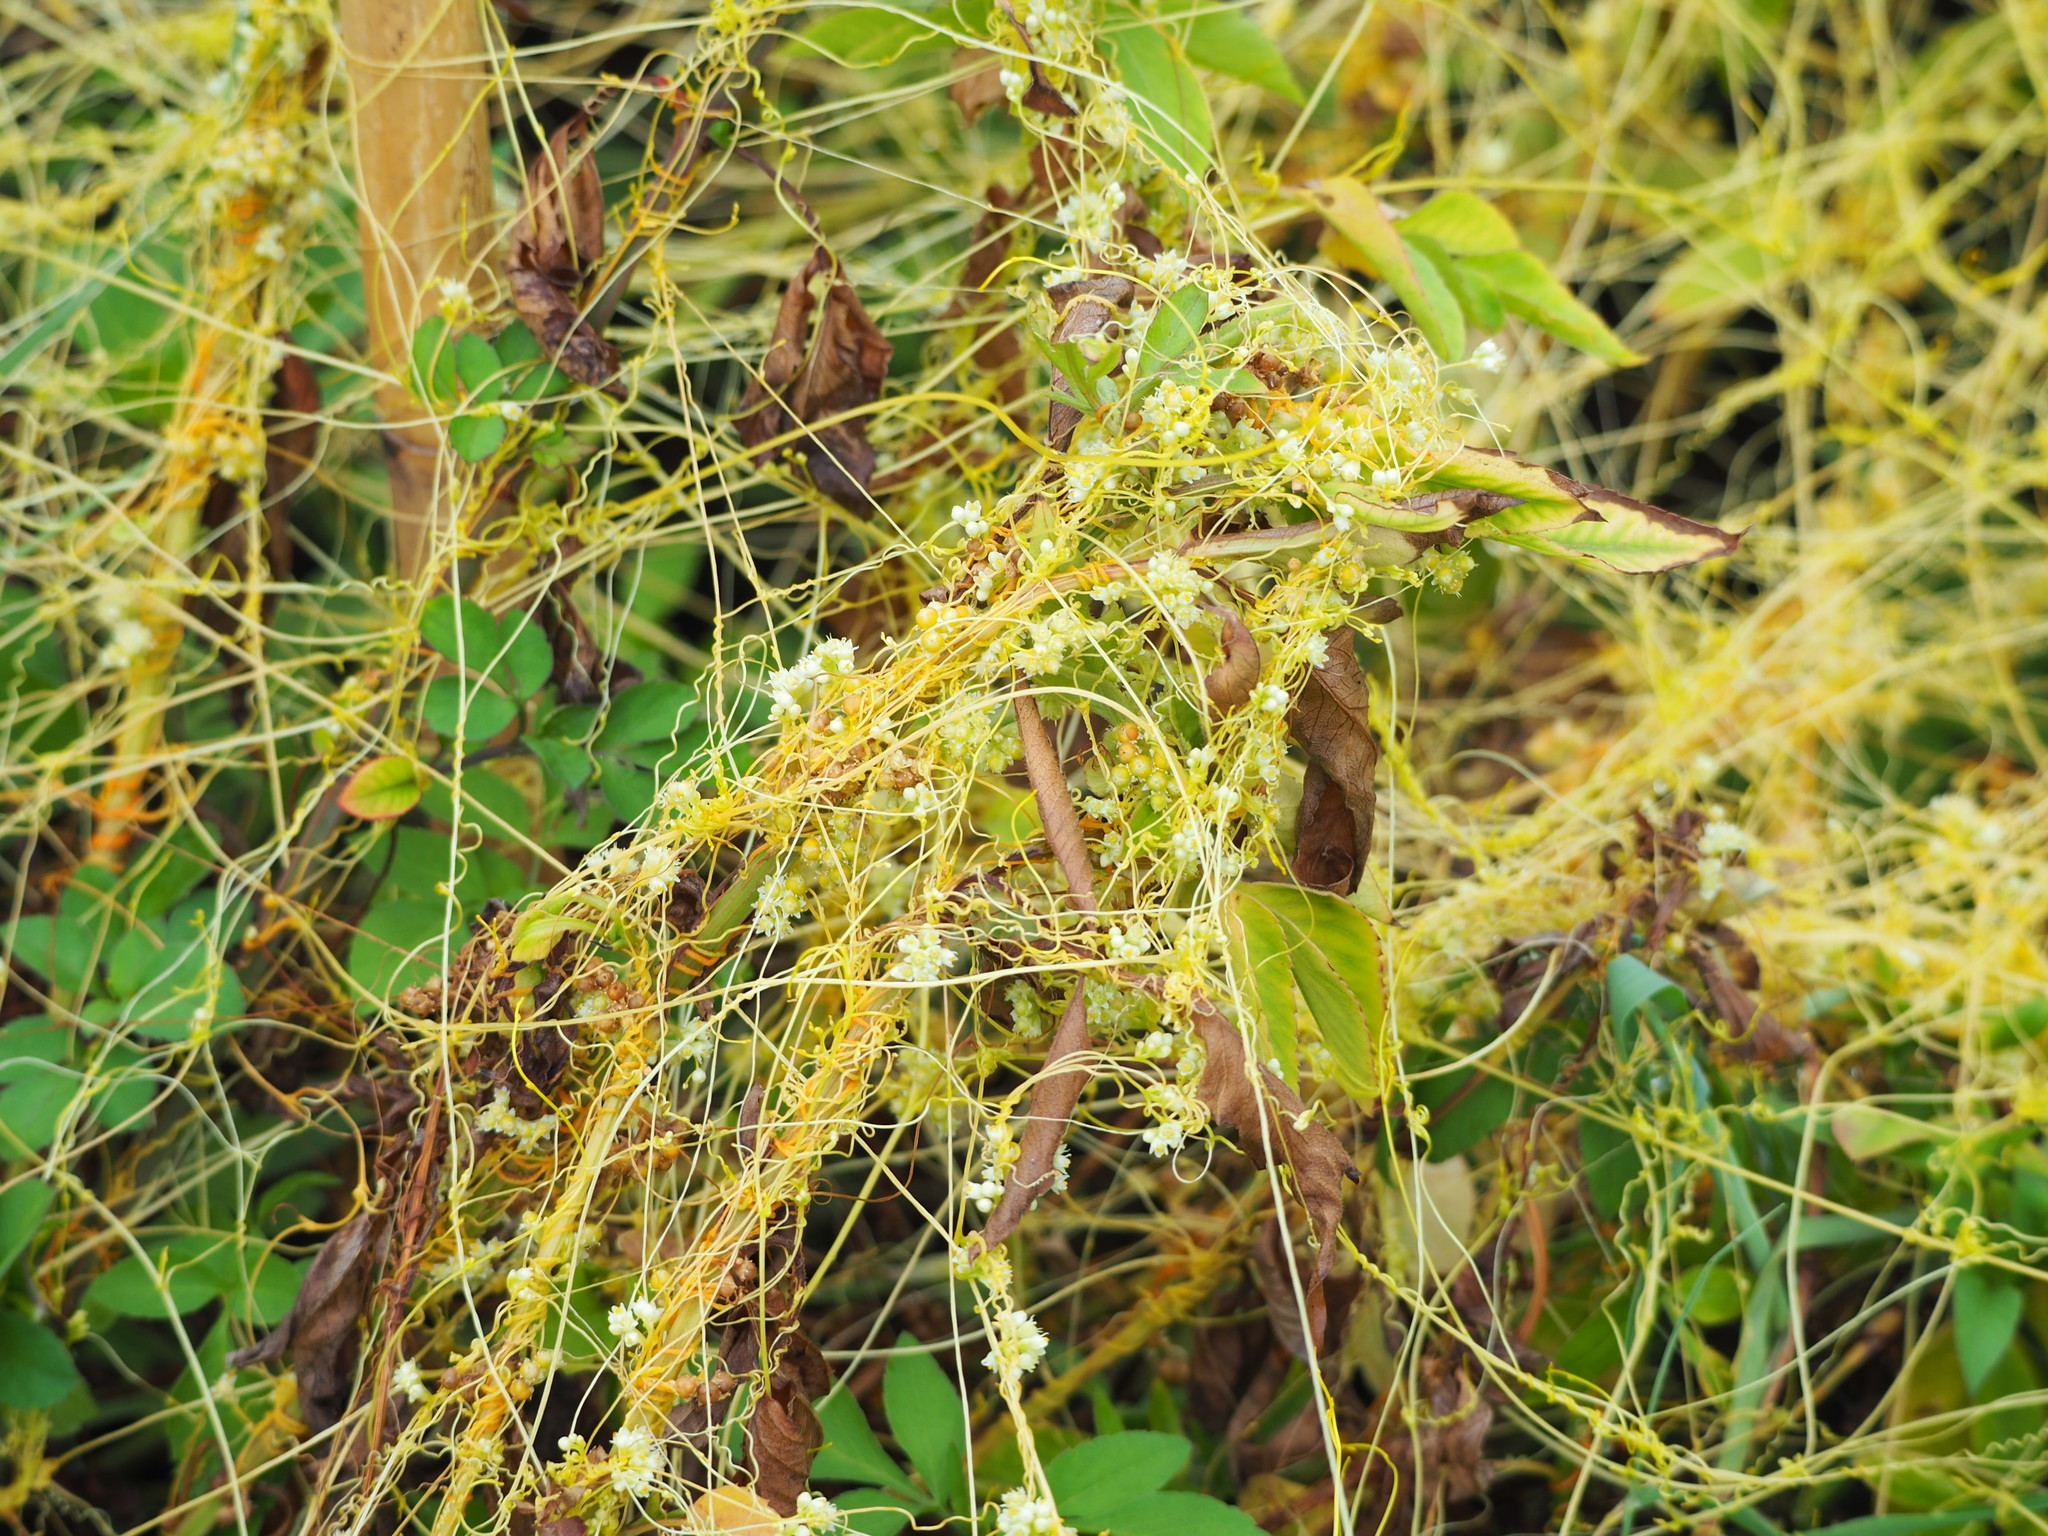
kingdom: Plantae
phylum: Tracheophyta
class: Magnoliopsida
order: Solanales
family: Convolvulaceae
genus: Cuscuta
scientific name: Cuscuta campestris
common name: Yellow dodder
